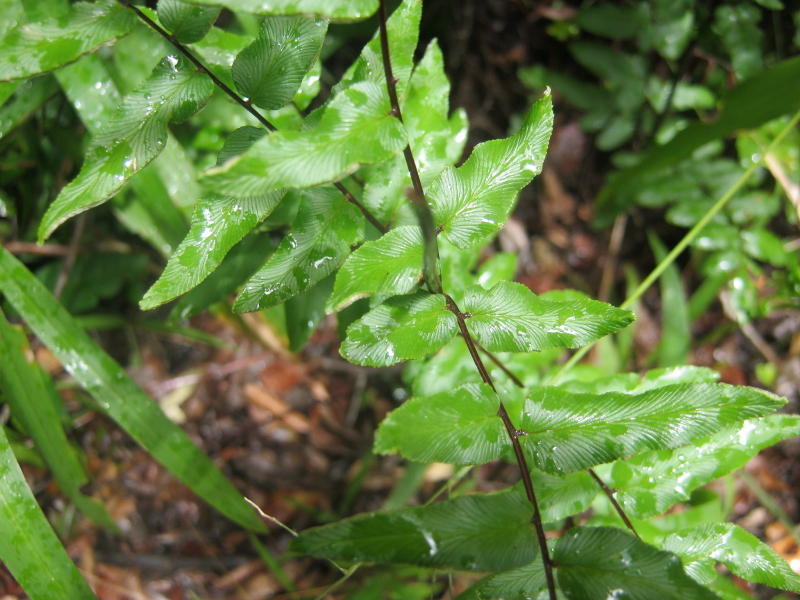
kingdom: Plantae
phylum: Tracheophyta
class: Polypodiopsida
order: Polypodiales
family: Pteridaceae
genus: Cheilanthes
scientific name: Cheilanthes viridis
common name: Green cliffbrake
